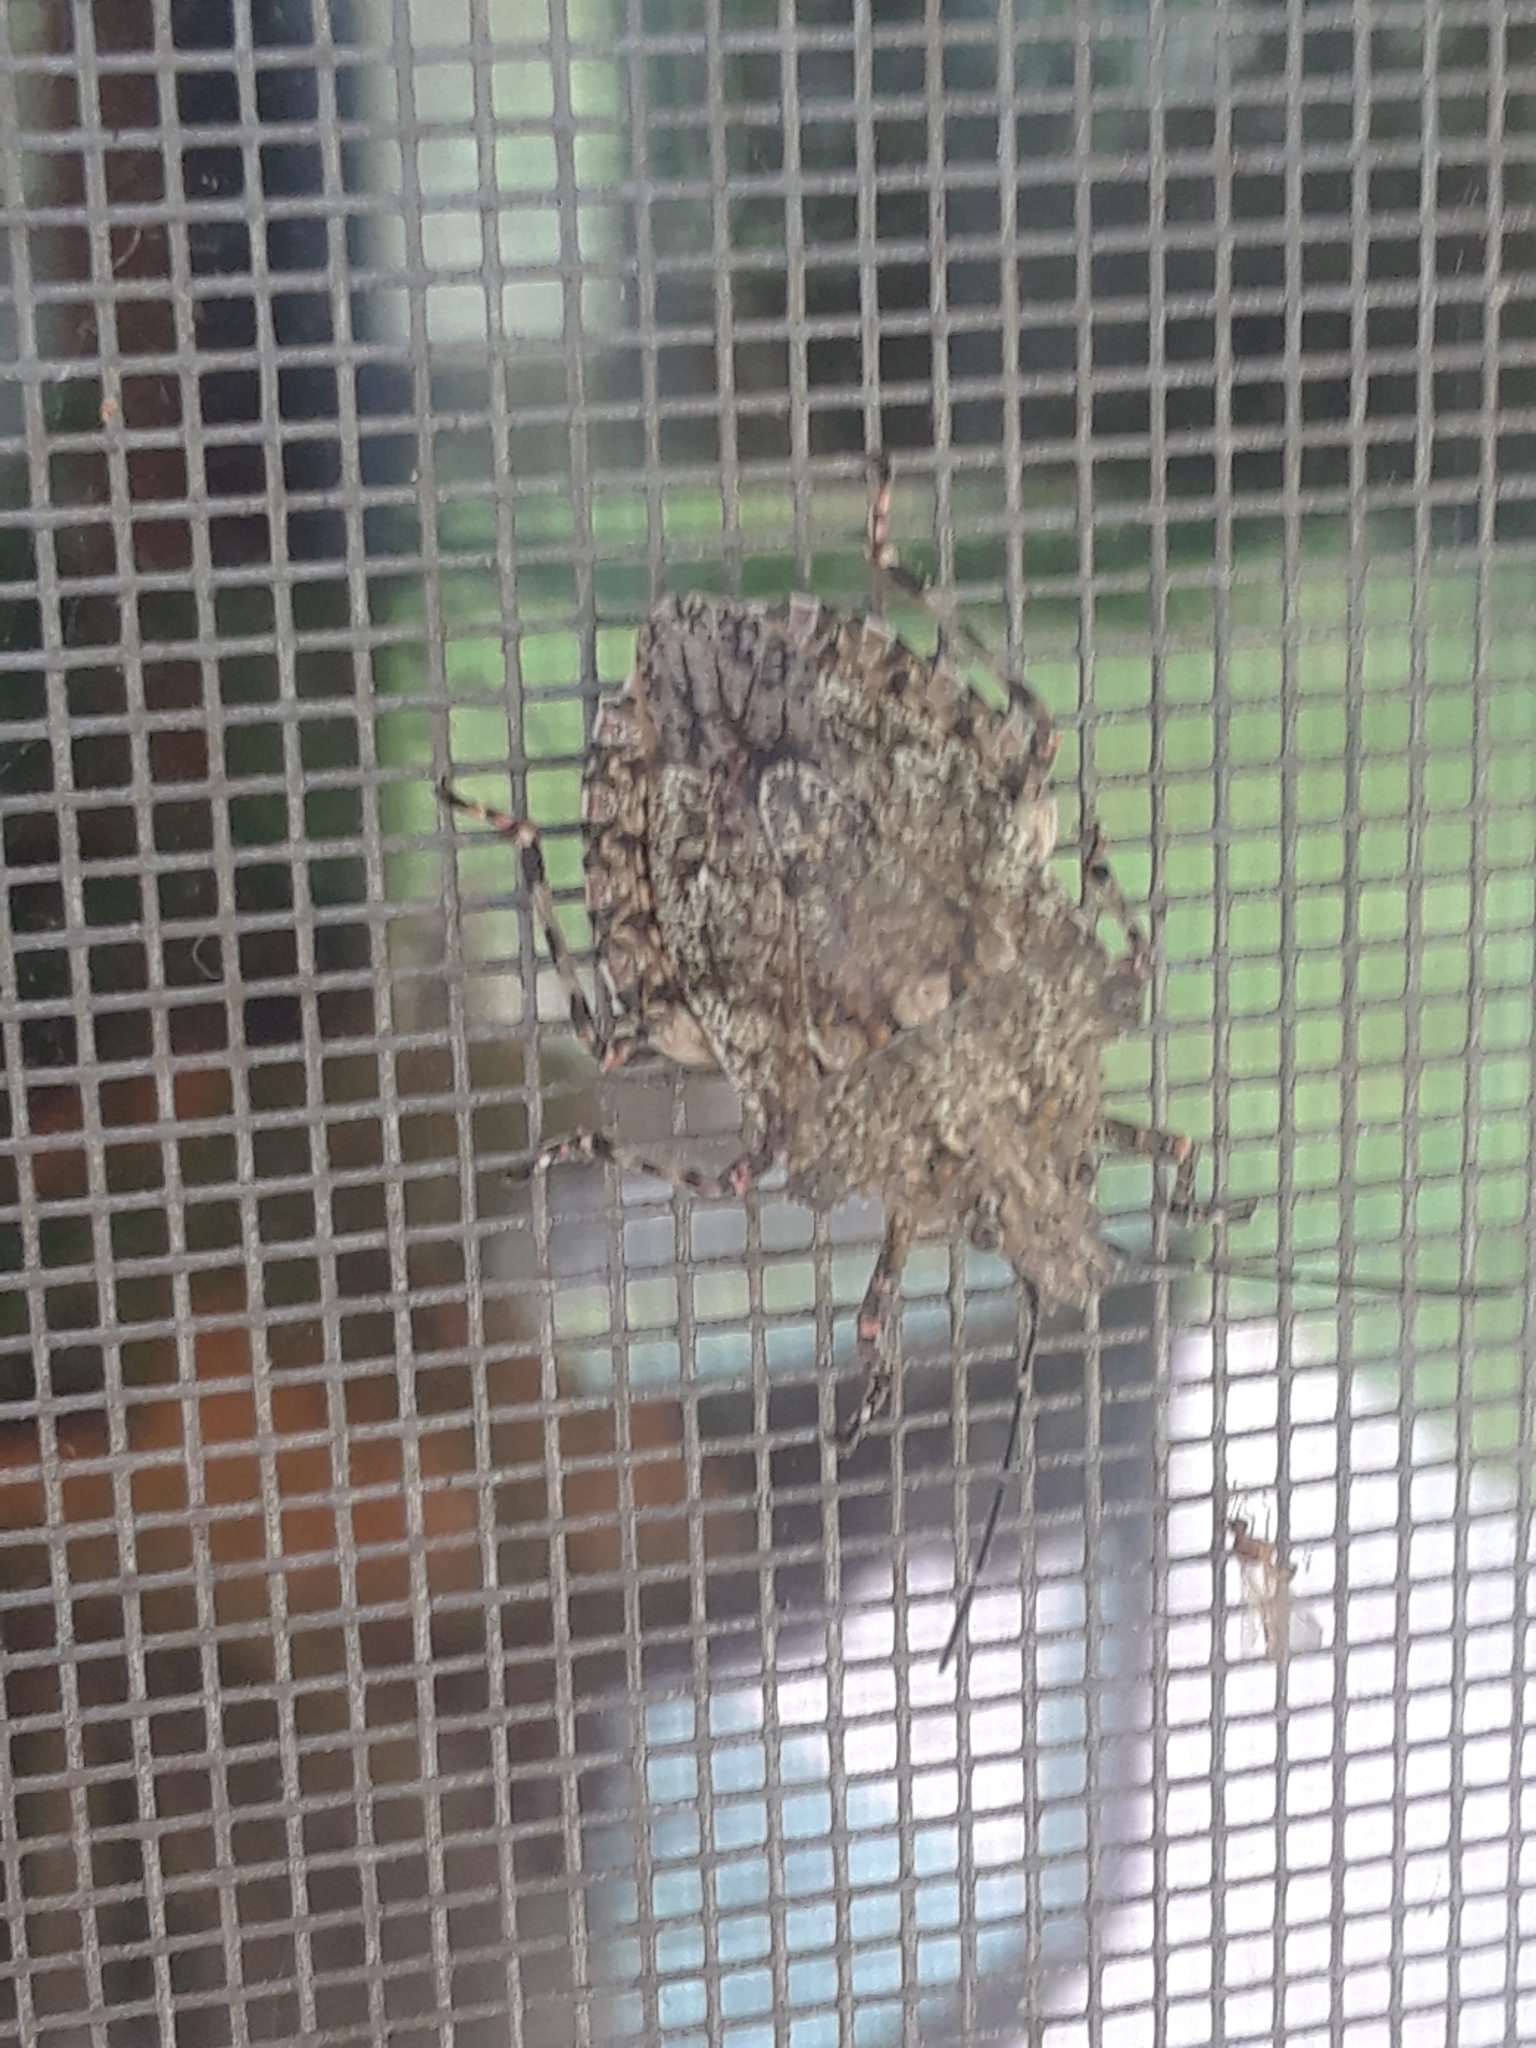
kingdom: Animalia
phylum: Arthropoda
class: Insecta
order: Hemiptera
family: Pentatomidae
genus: Brochymena
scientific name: Brochymena arborea
